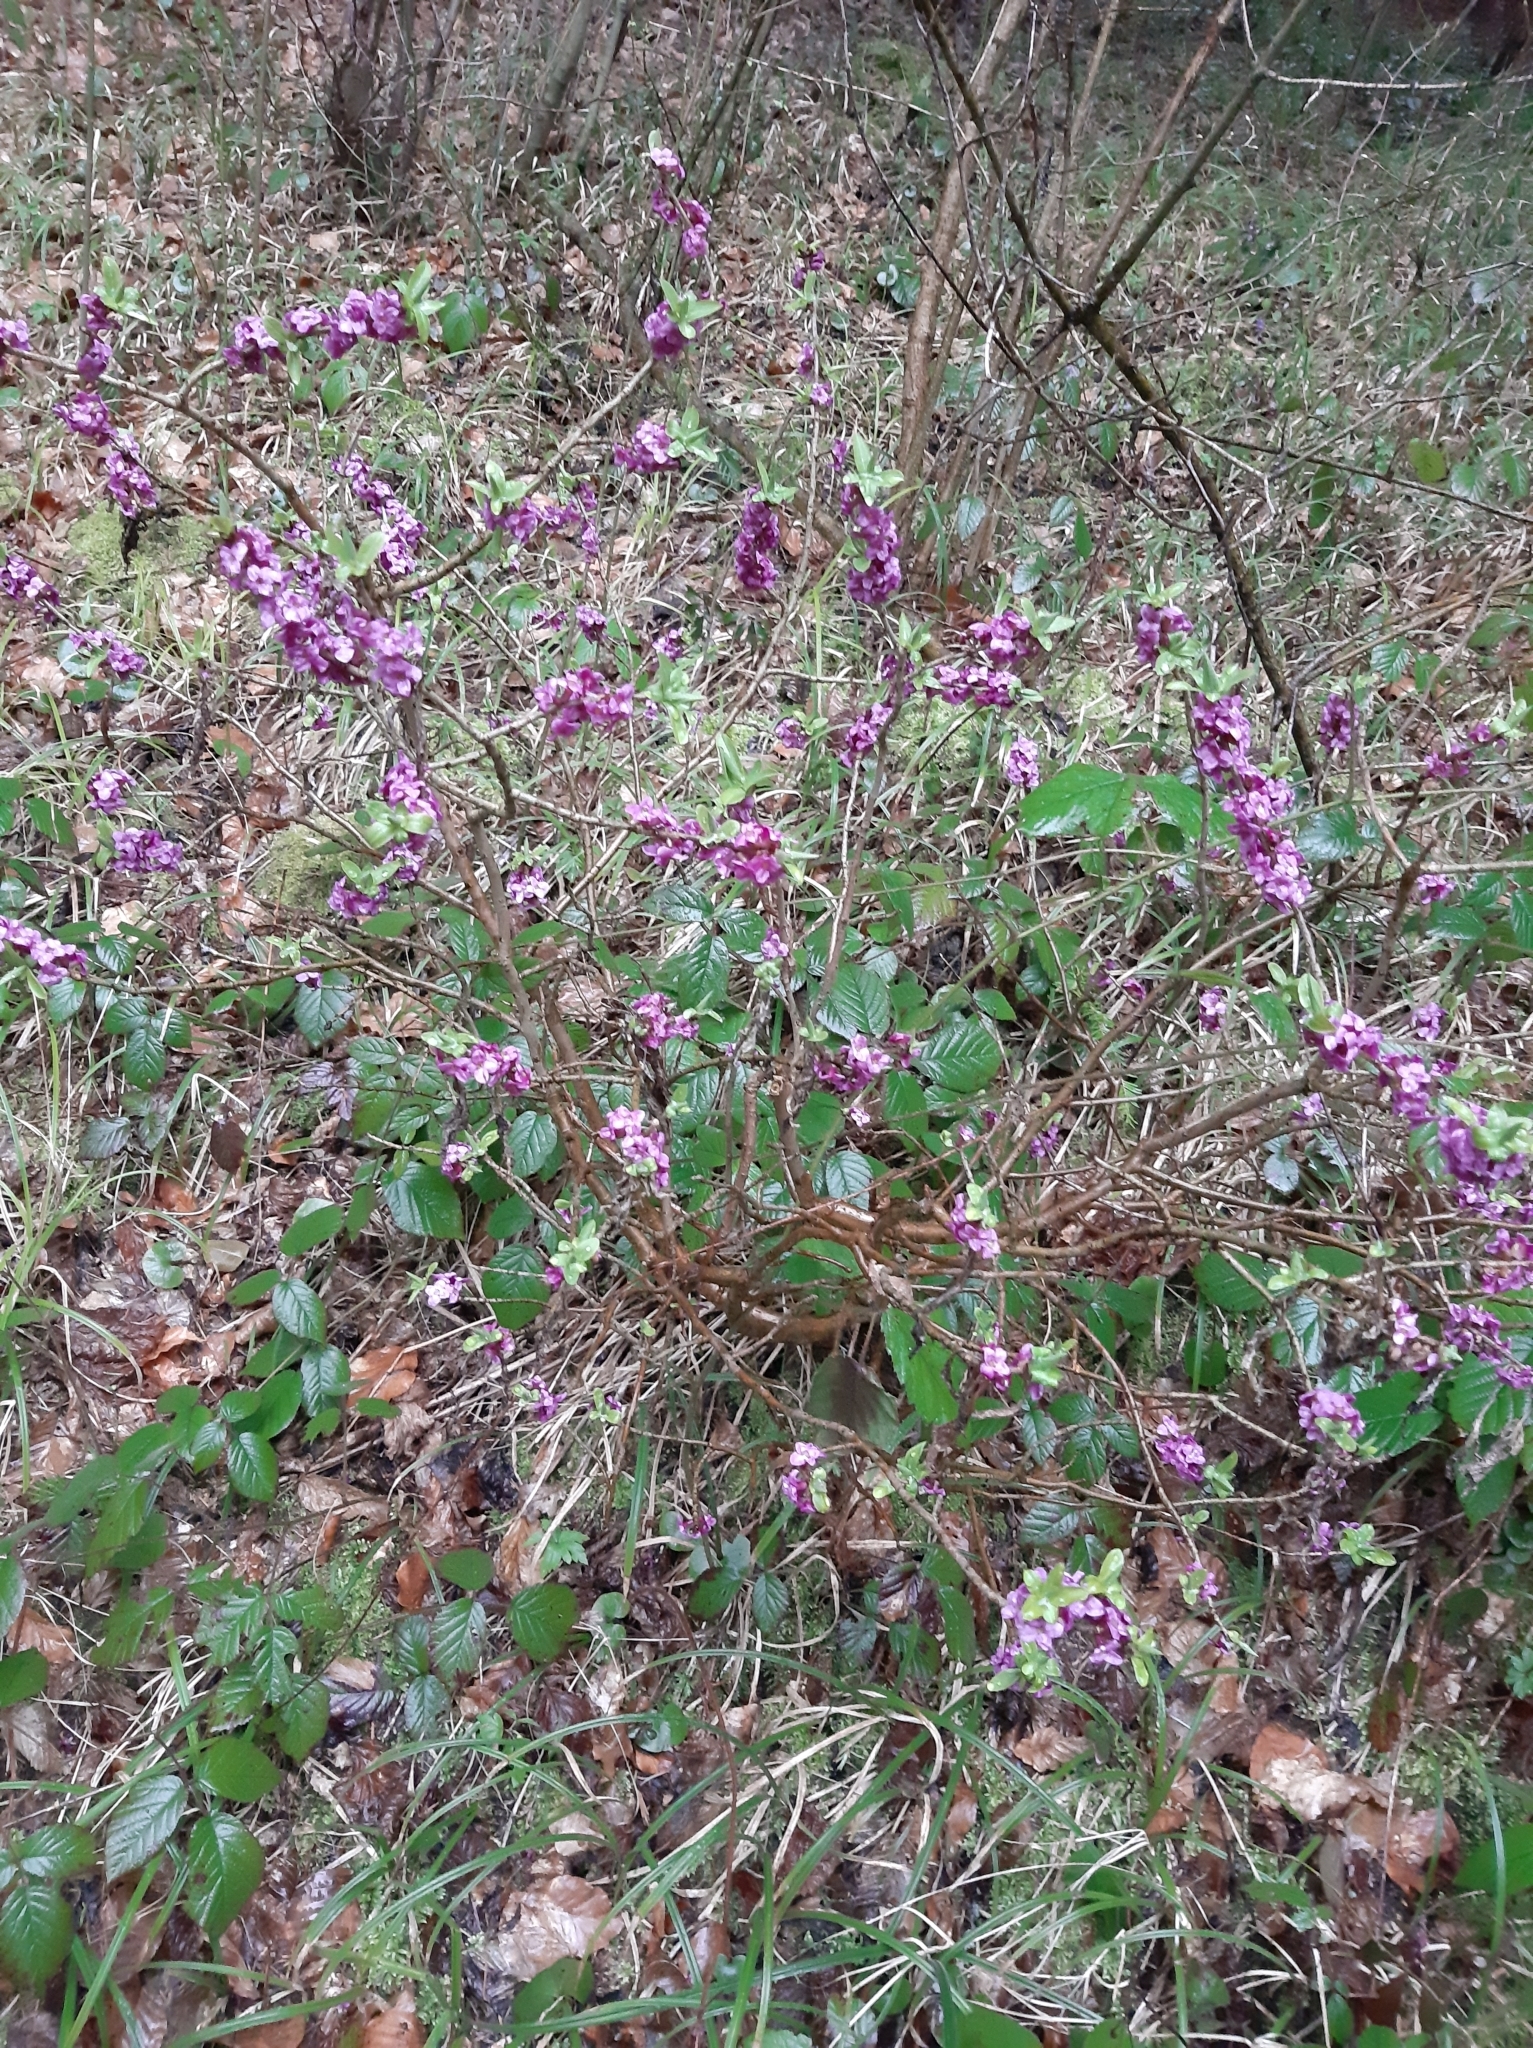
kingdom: Plantae
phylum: Tracheophyta
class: Magnoliopsida
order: Malvales
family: Thymelaeaceae
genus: Daphne
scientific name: Daphne mezereum
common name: Mezereon
